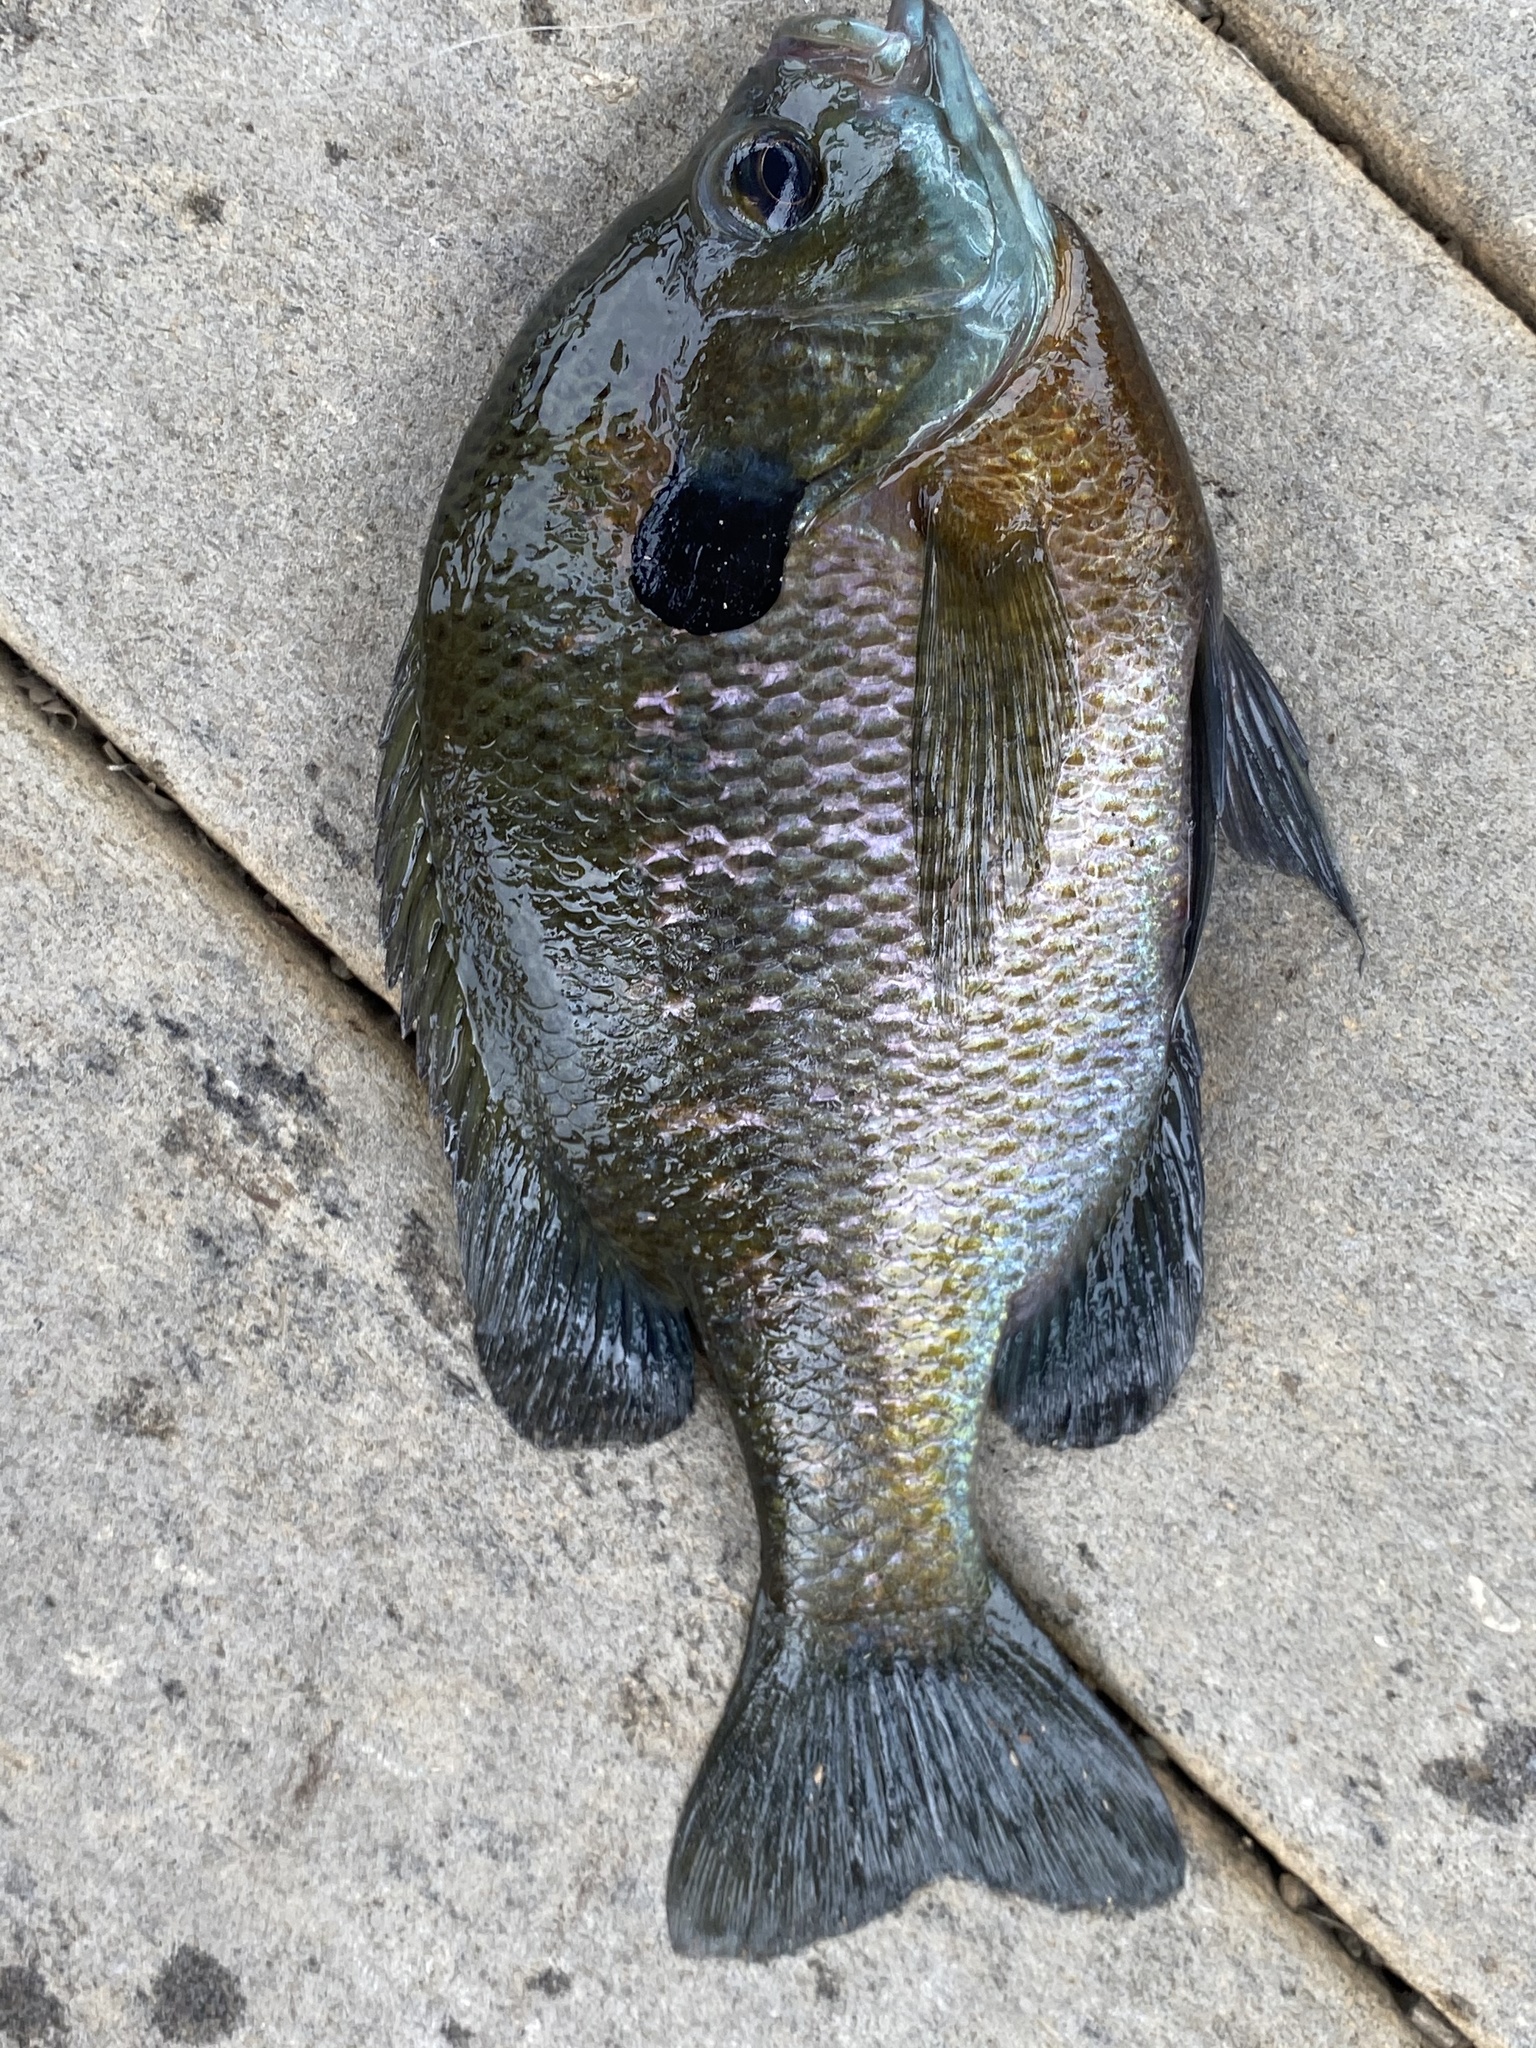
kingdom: Animalia
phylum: Chordata
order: Perciformes
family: Centrarchidae
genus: Lepomis
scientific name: Lepomis macrochirus
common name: Bluegill
